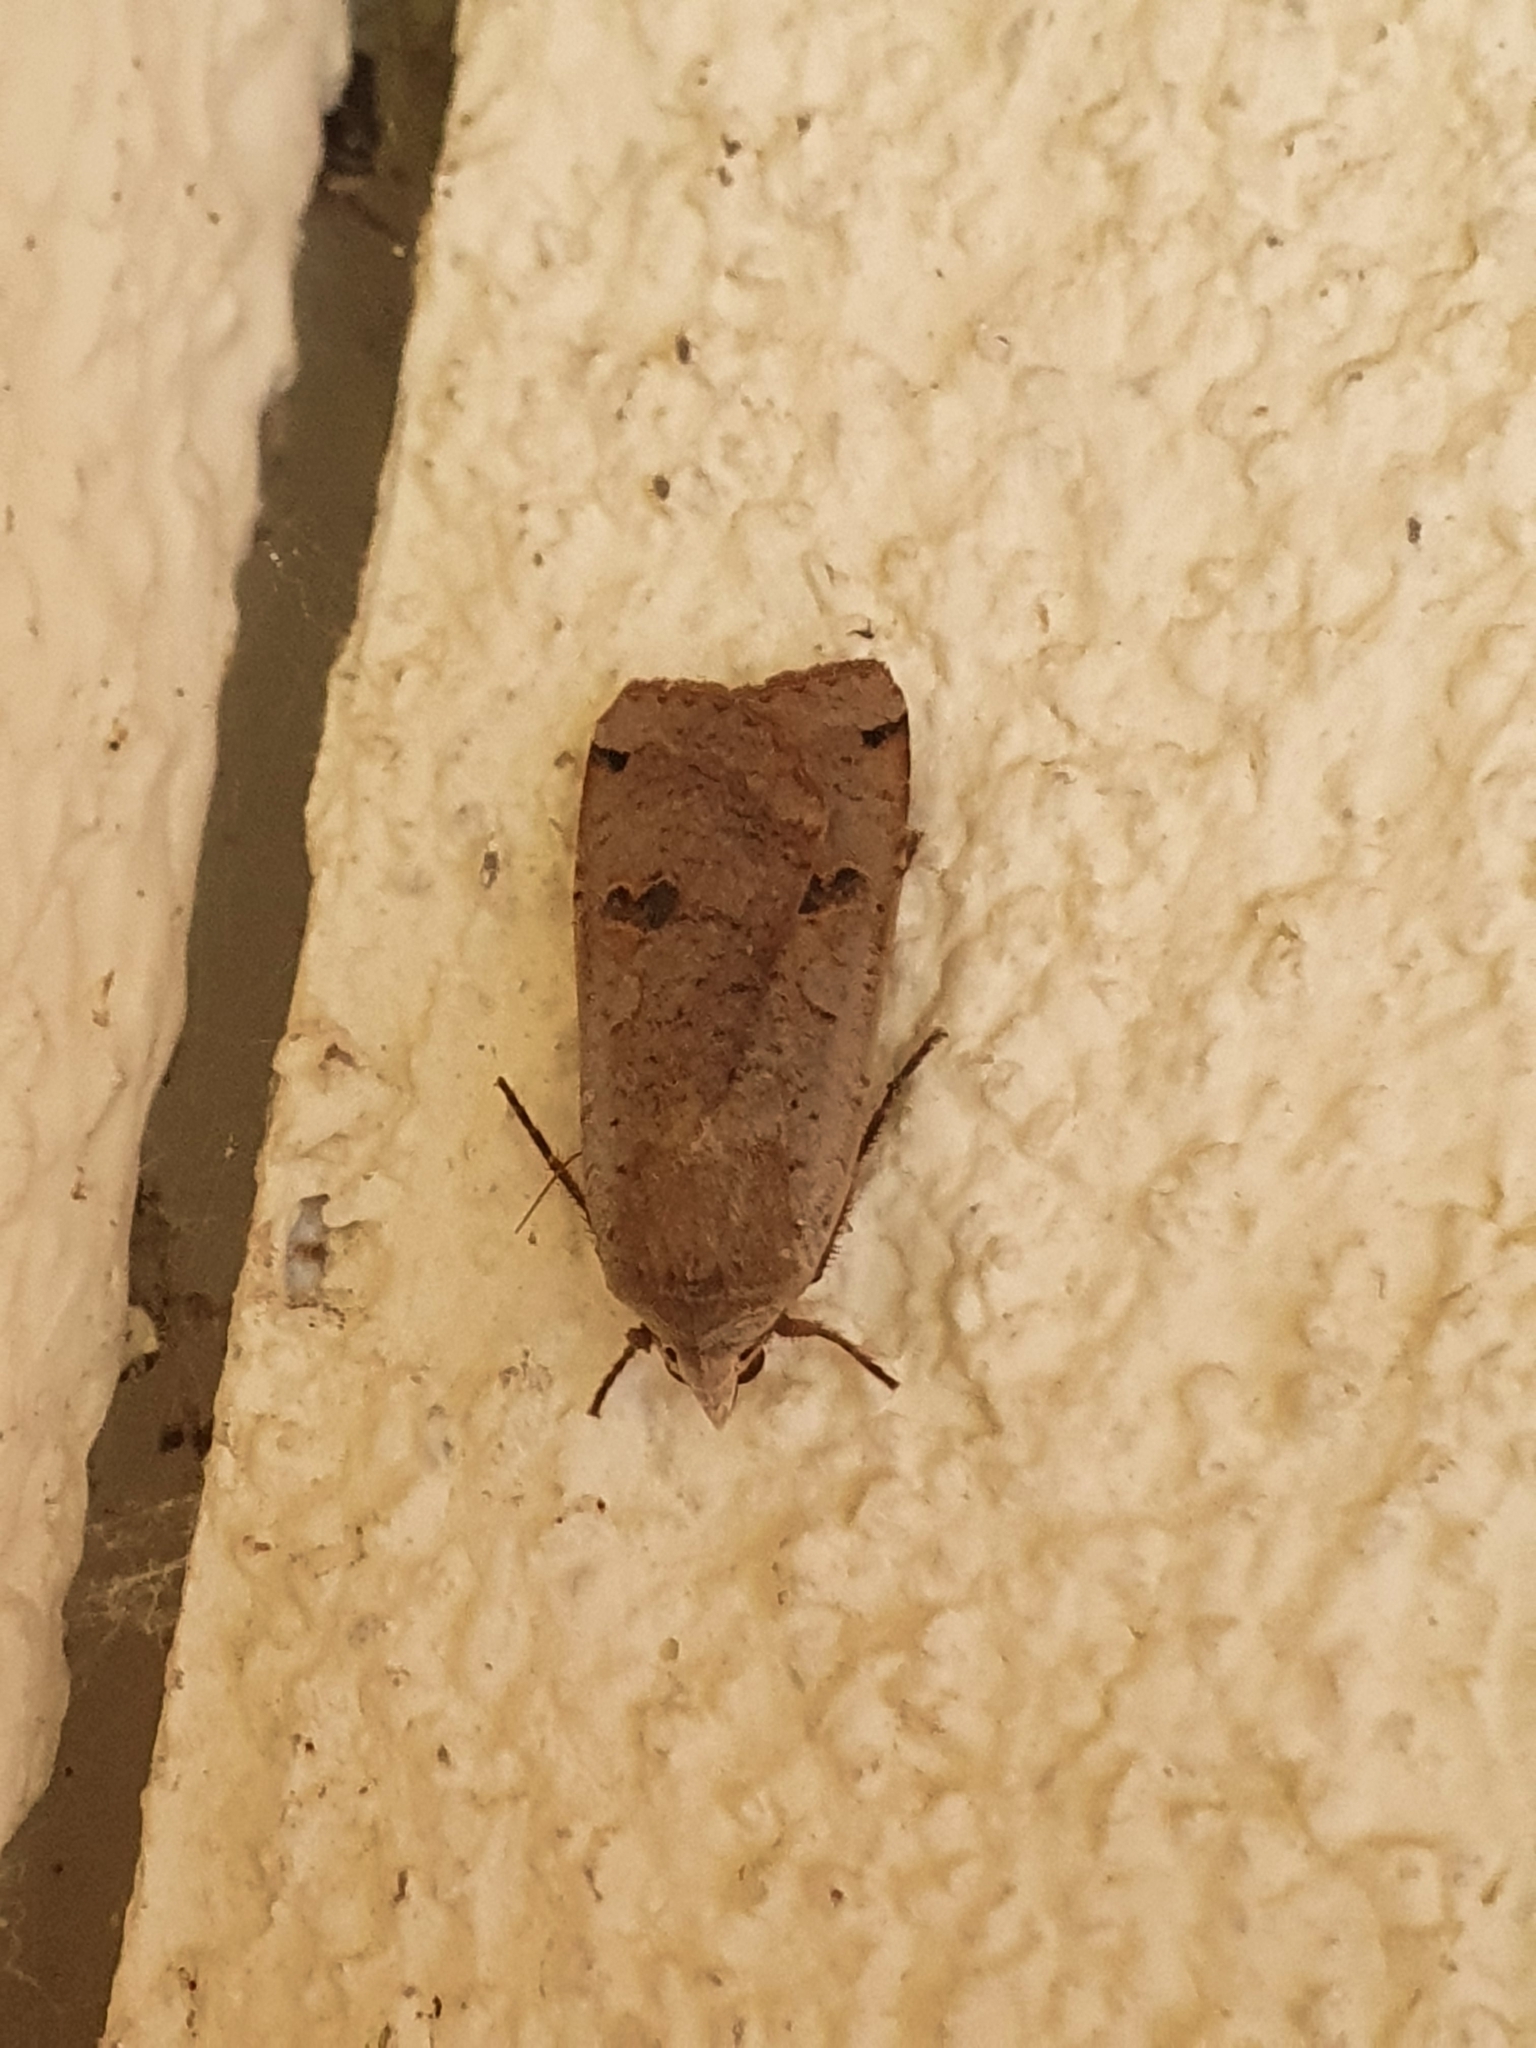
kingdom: Animalia
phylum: Arthropoda
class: Insecta
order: Lepidoptera
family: Noctuidae
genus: Noctua
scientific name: Noctua pronuba
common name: Large yellow underwing
